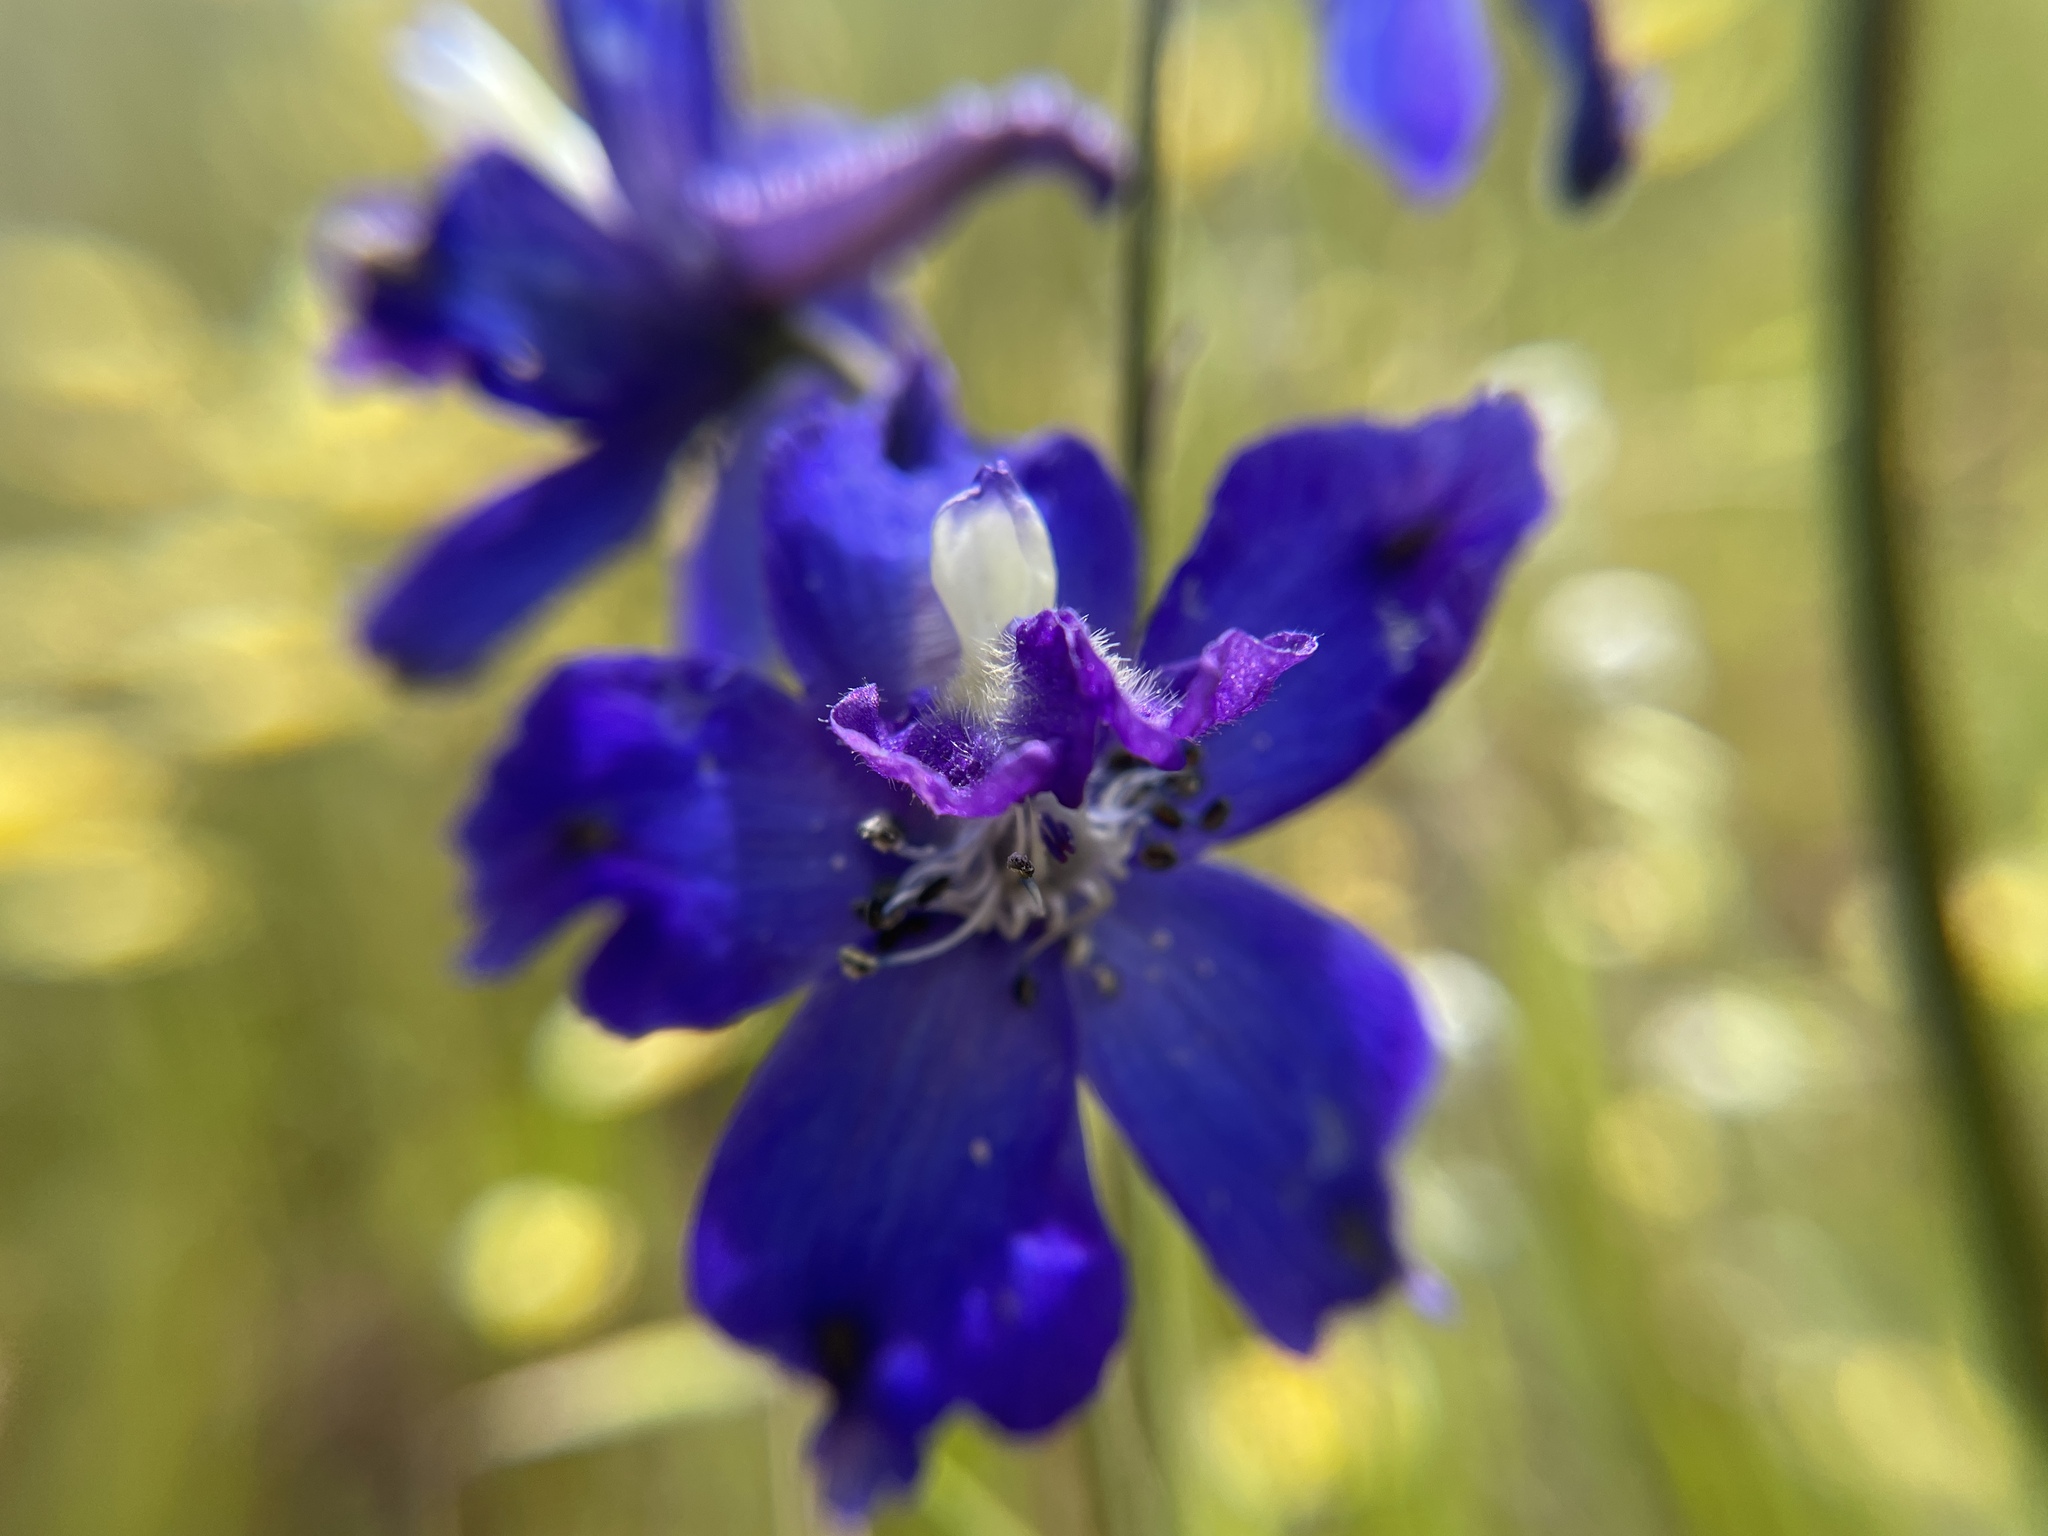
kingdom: Plantae
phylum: Tracheophyta
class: Magnoliopsida
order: Ranunculales
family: Ranunculaceae
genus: Delphinium
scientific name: Delphinium variegatum
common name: Royal larkspur
